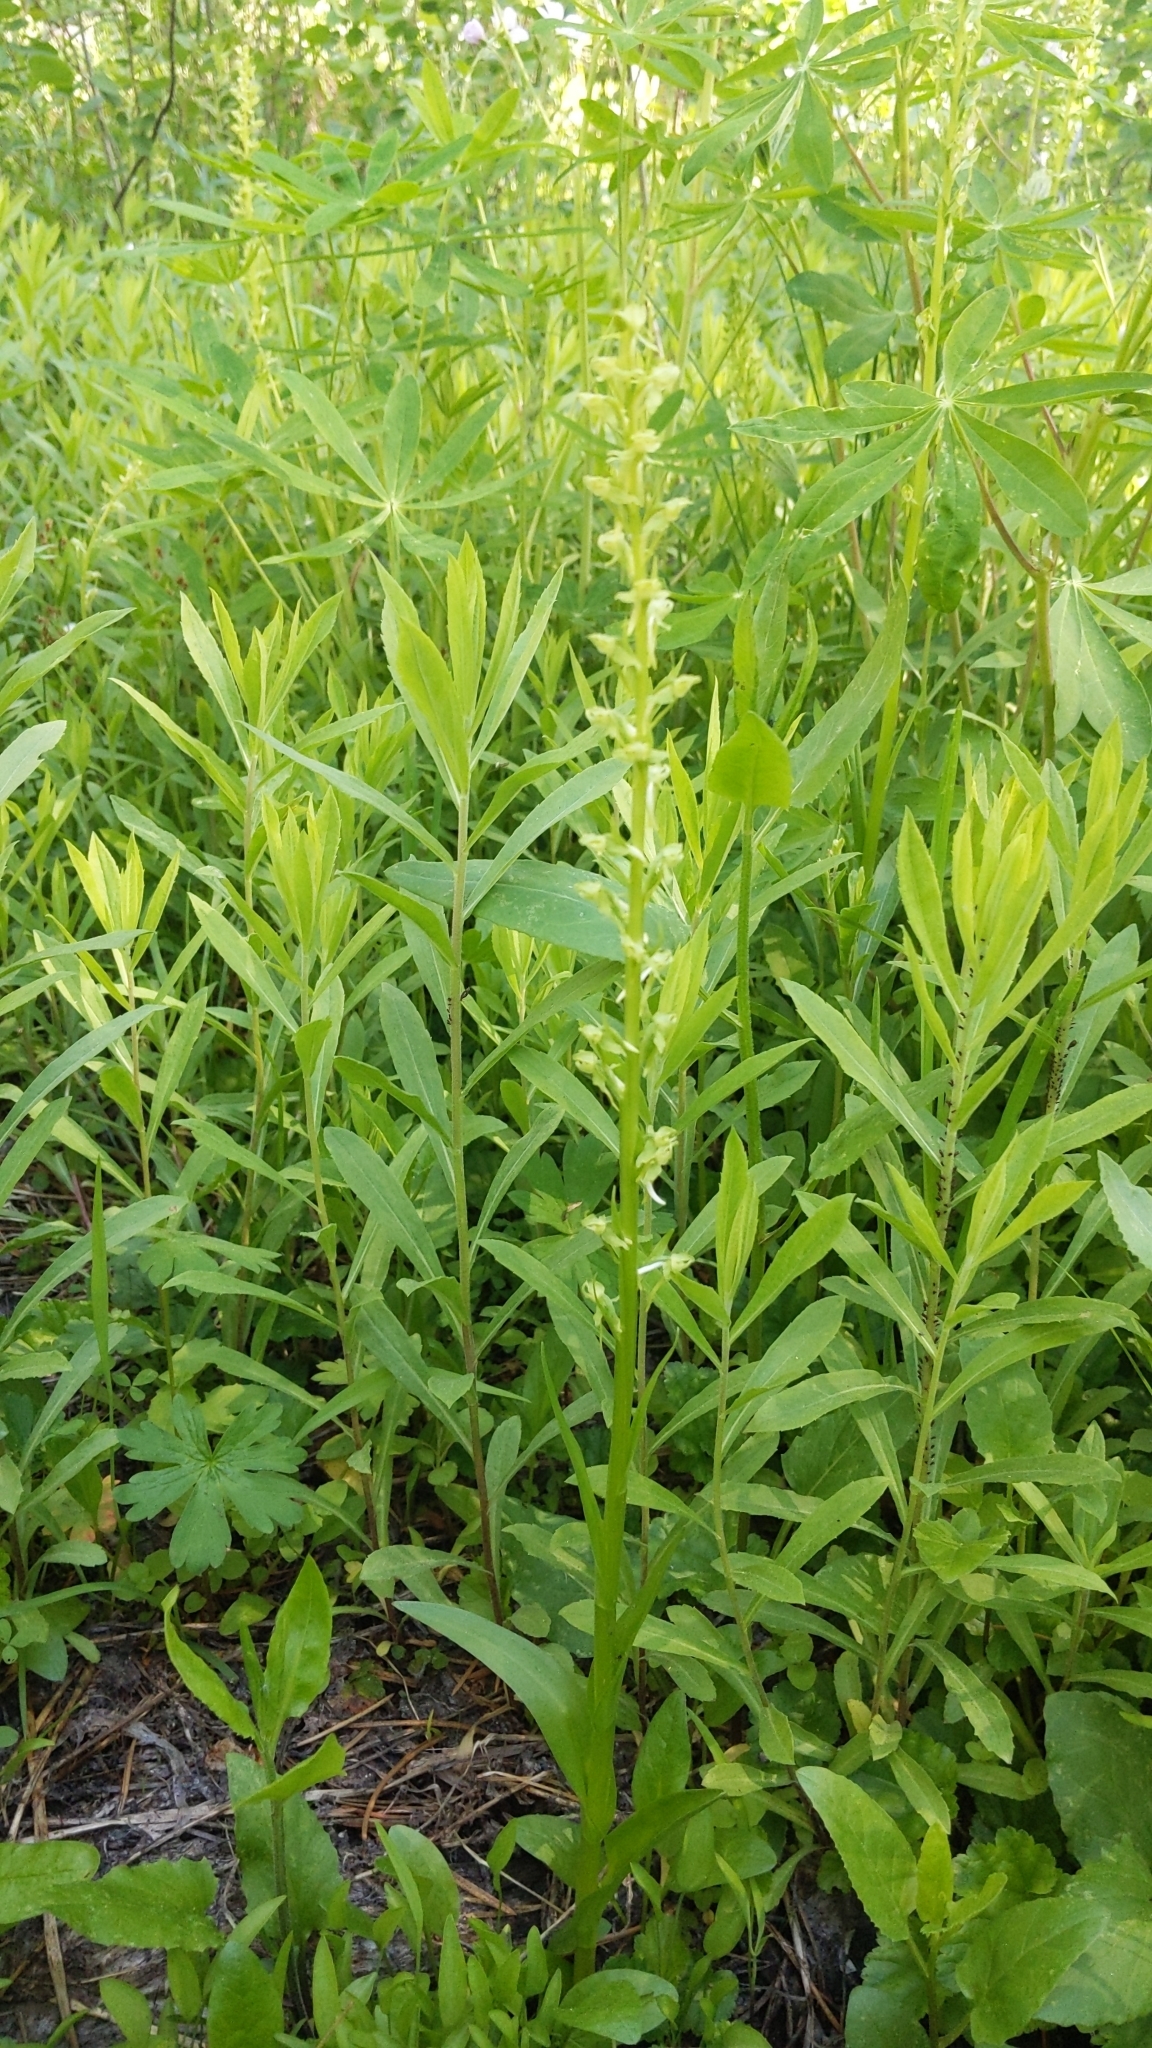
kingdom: Plantae
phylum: Tracheophyta
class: Liliopsida
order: Asparagales
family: Orchidaceae
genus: Platanthera
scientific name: Platanthera sparsiflora
